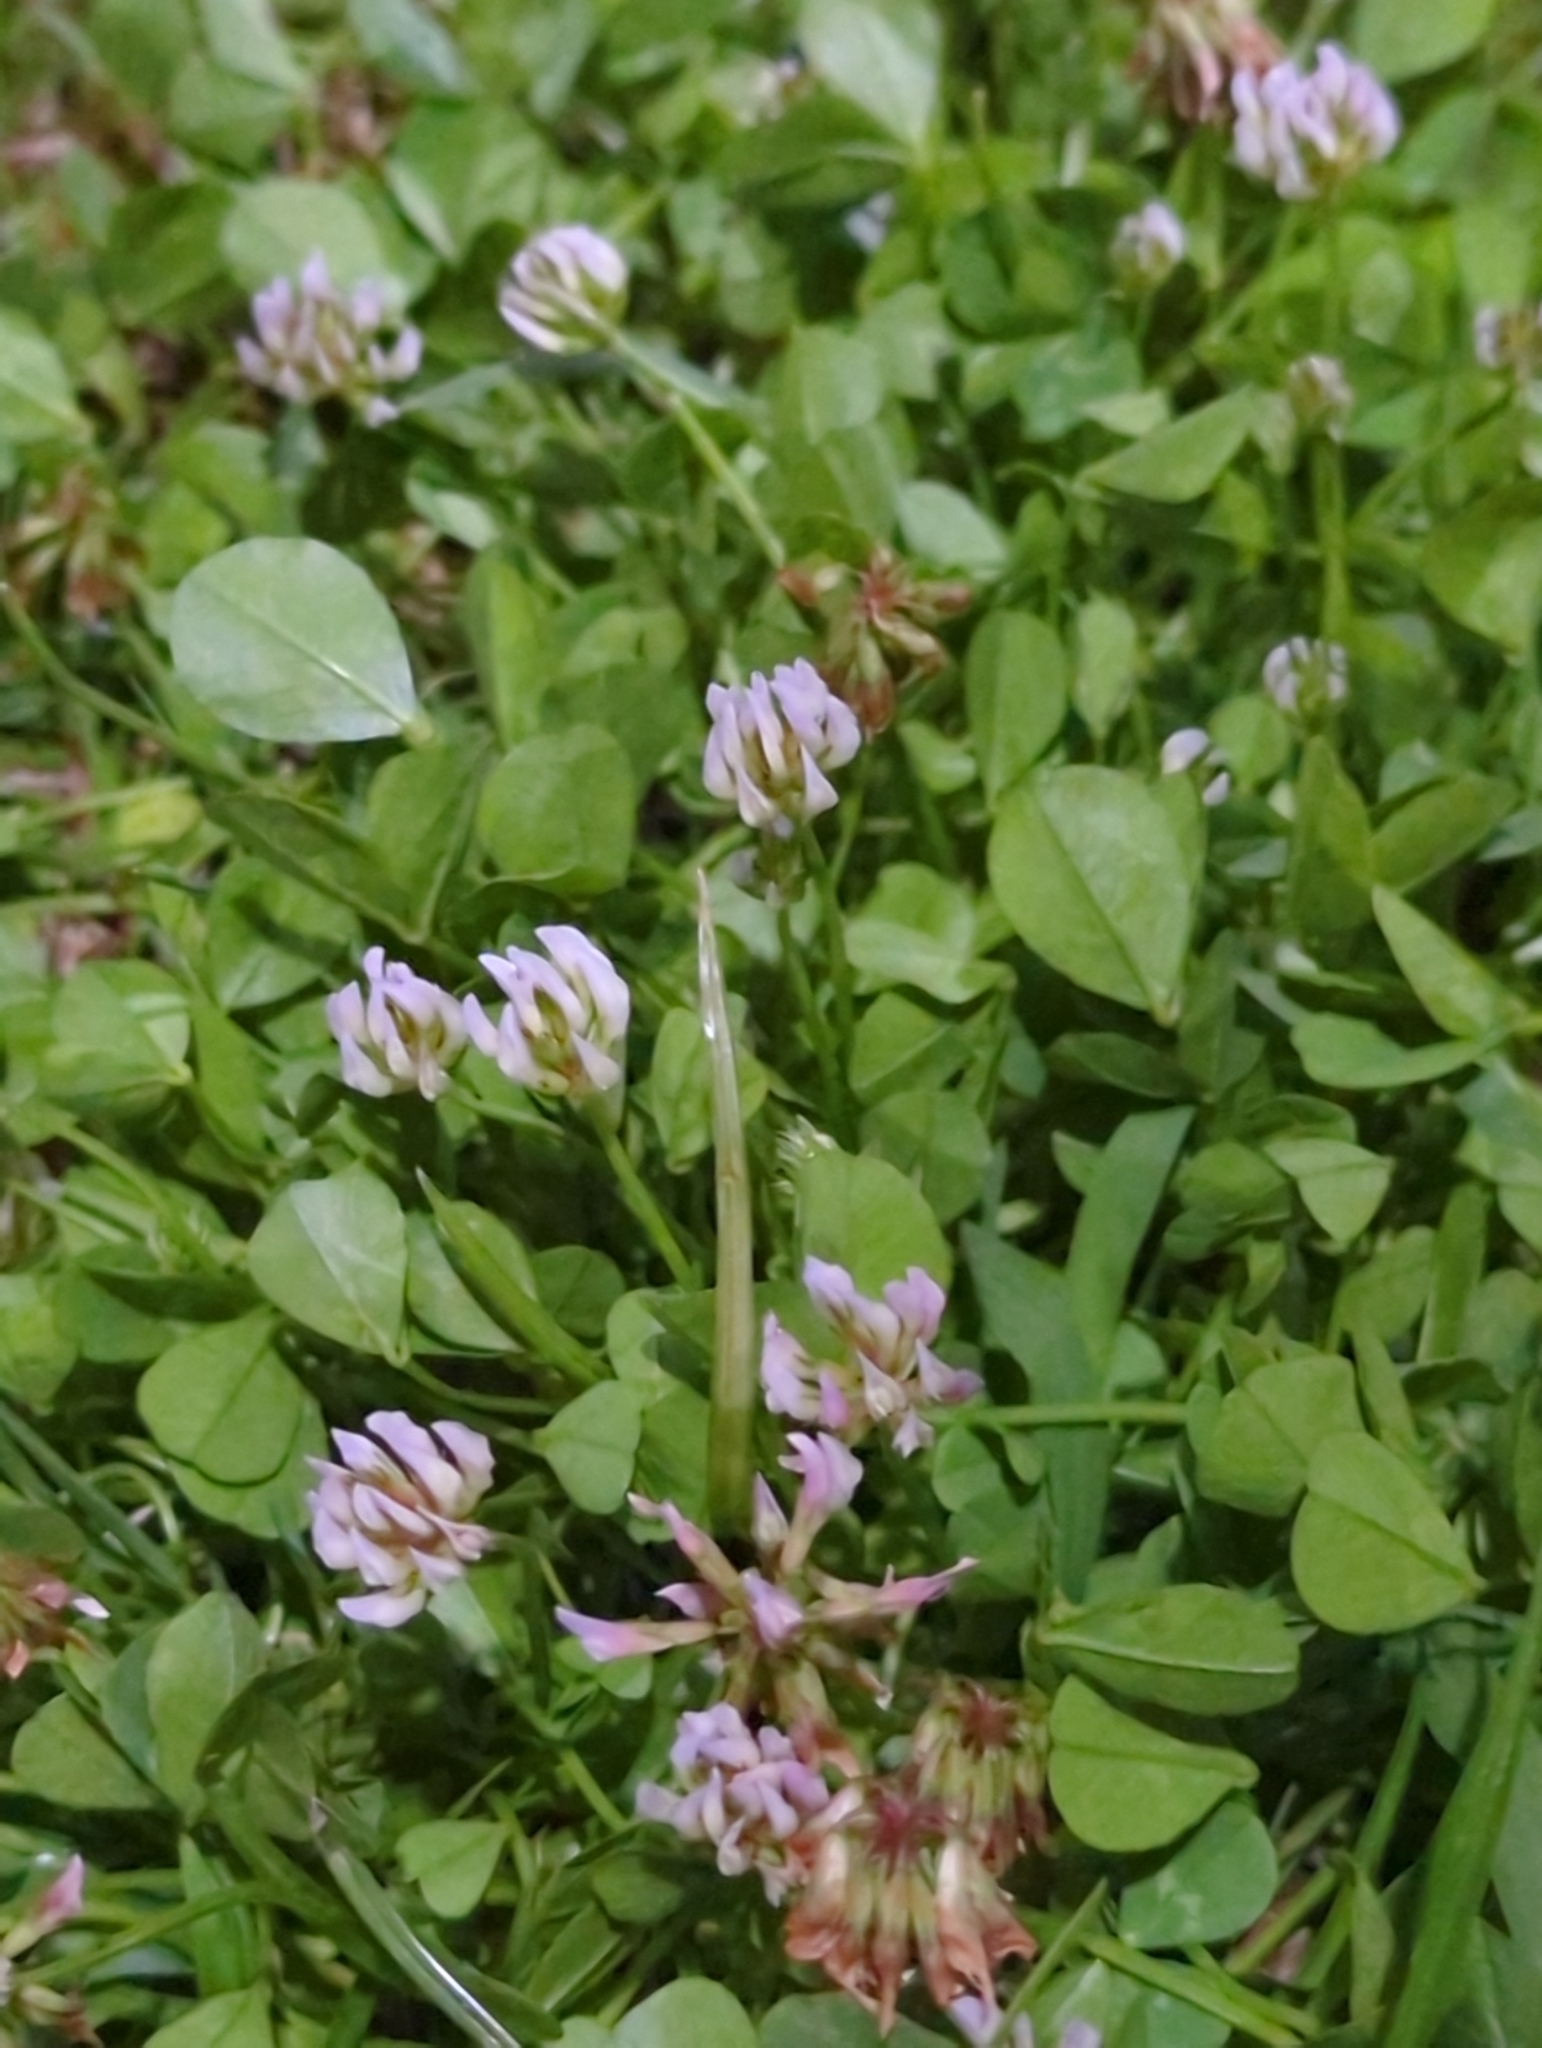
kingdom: Plantae
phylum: Tracheophyta
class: Magnoliopsida
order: Fabales
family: Fabaceae
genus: Trifolium
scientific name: Trifolium repens
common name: White clover
